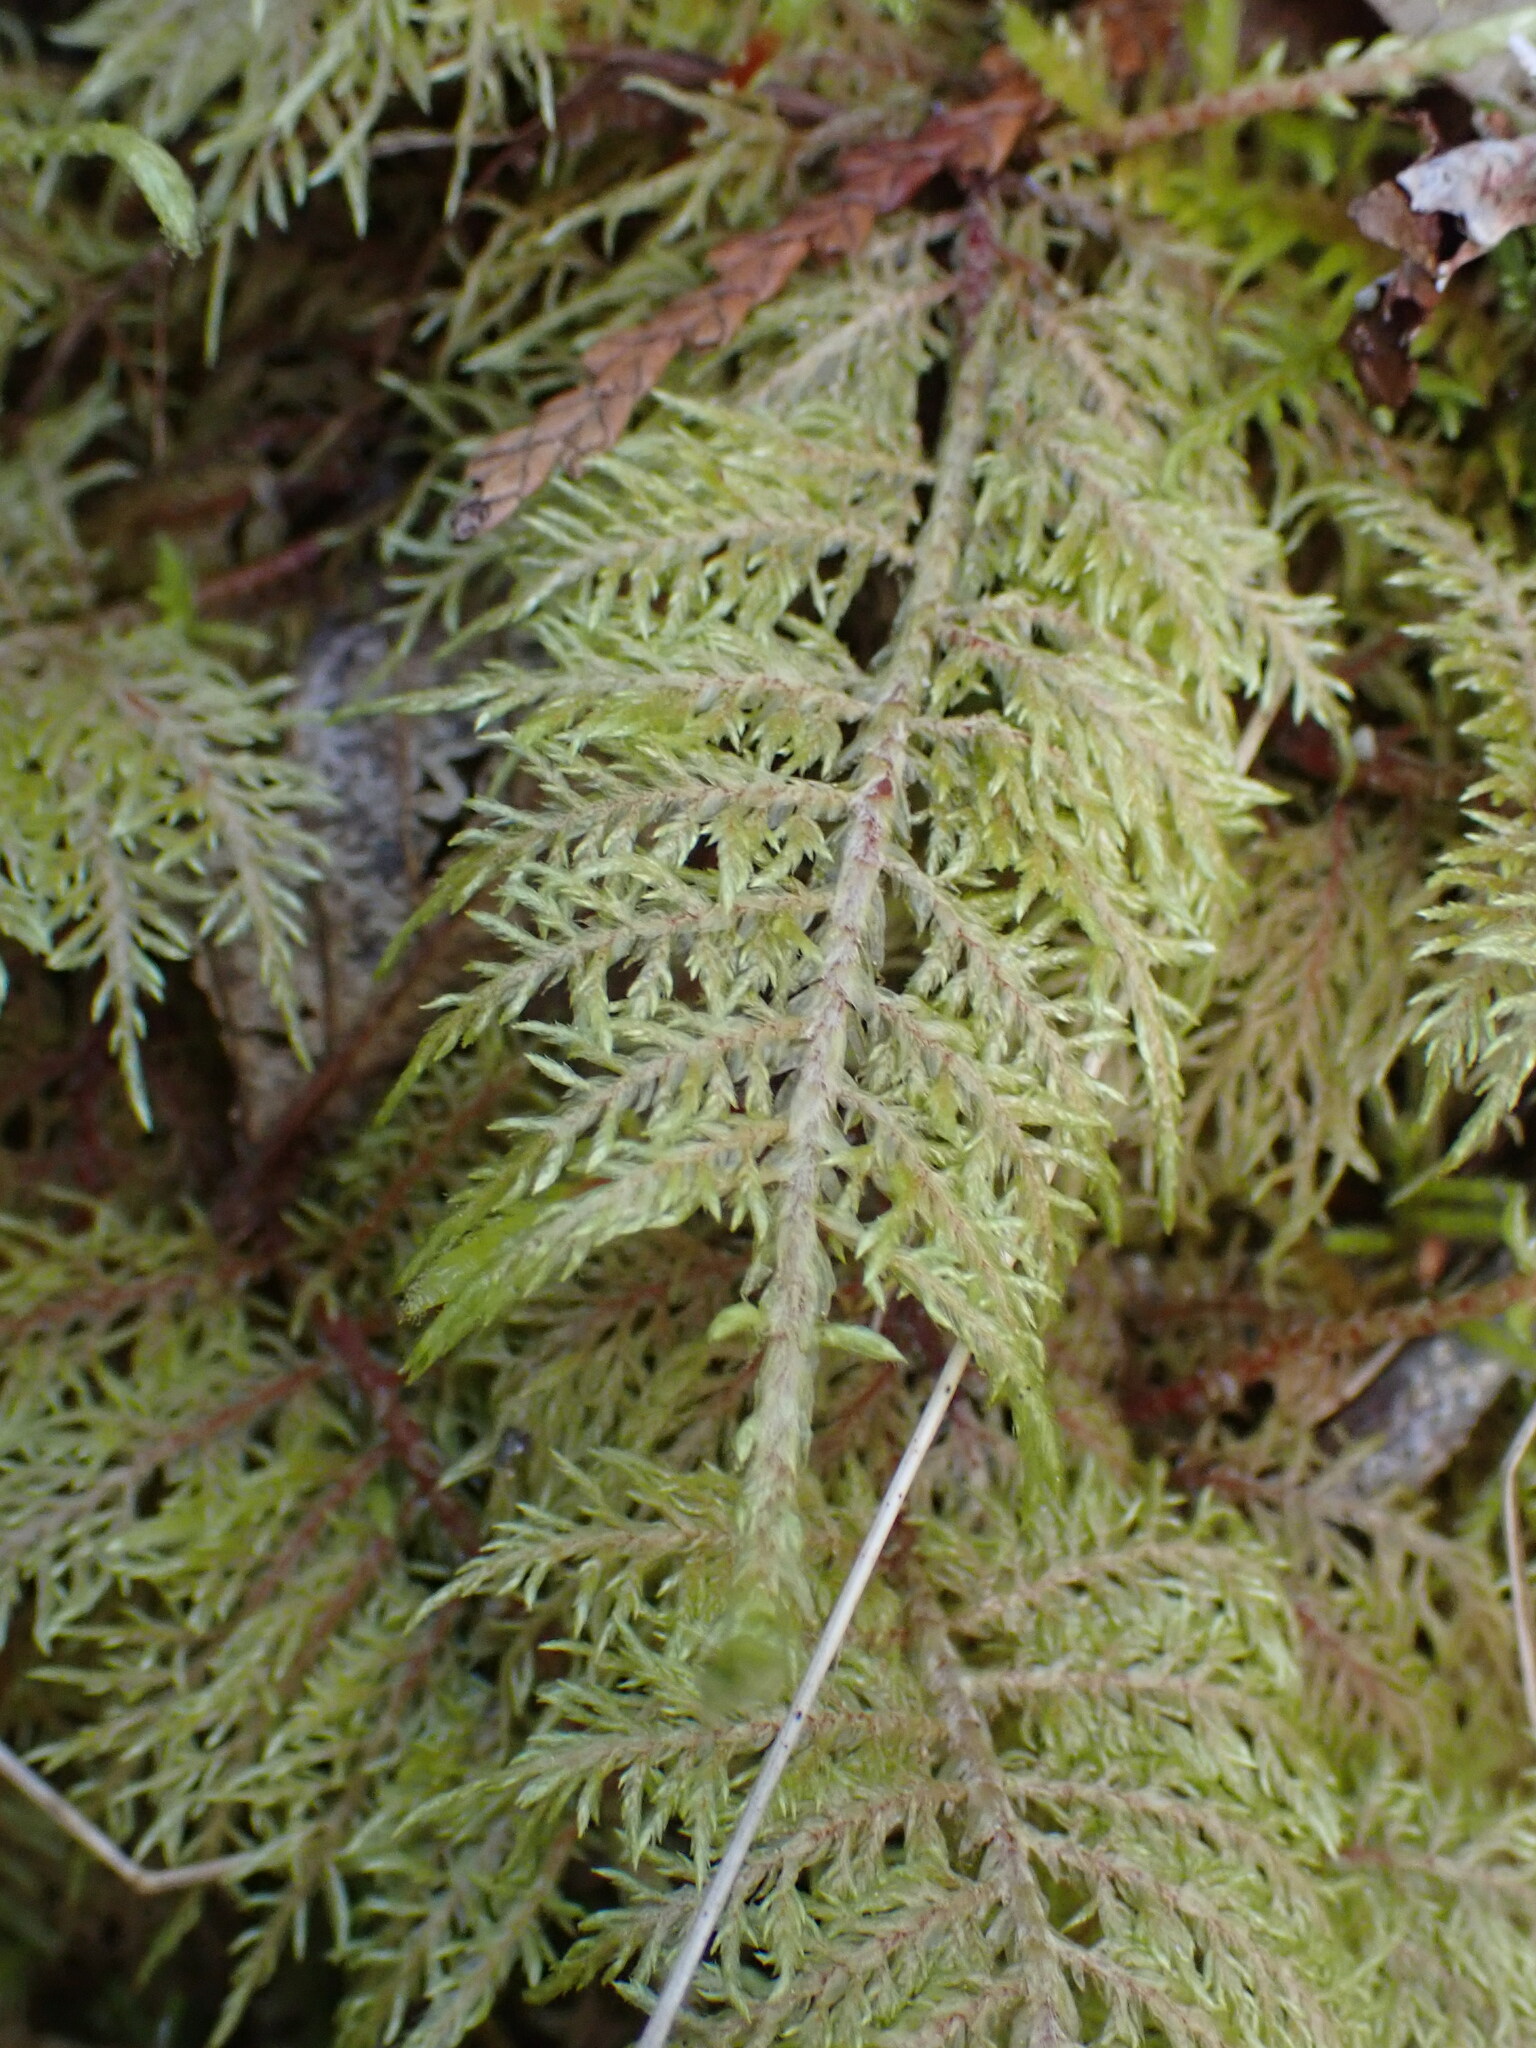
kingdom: Plantae
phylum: Bryophyta
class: Bryopsida
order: Hypnales
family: Hylocomiaceae
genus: Hylocomium
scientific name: Hylocomium splendens
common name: Stairstep moss
